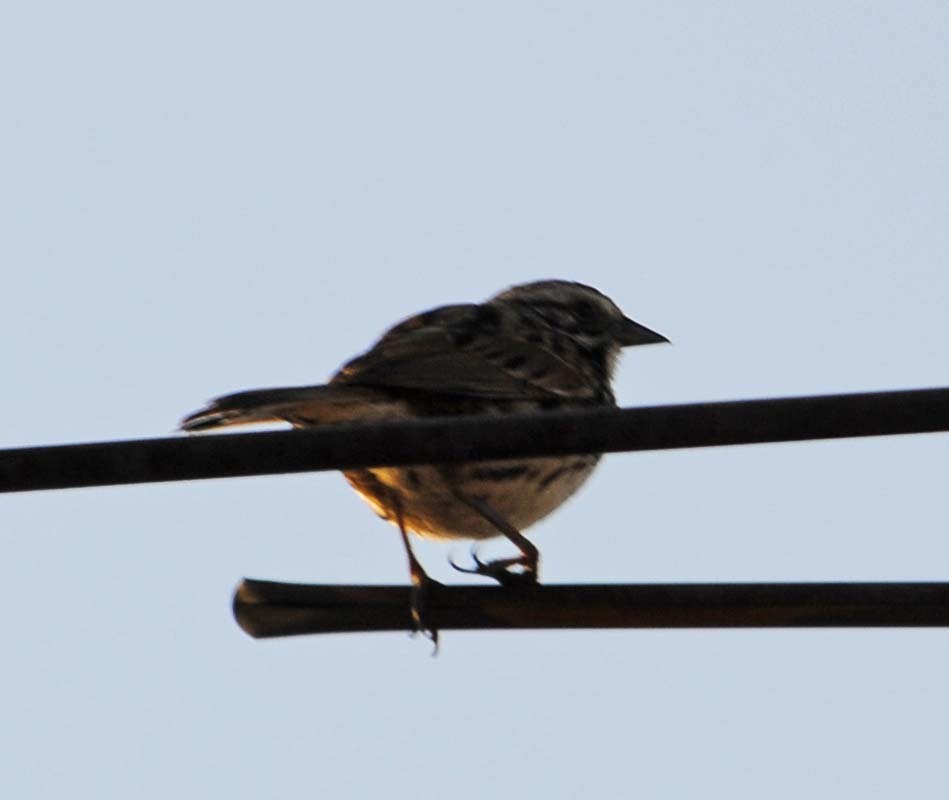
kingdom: Animalia
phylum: Chordata
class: Aves
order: Passeriformes
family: Passerellidae
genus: Melospiza
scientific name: Melospiza melodia
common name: Song sparrow
